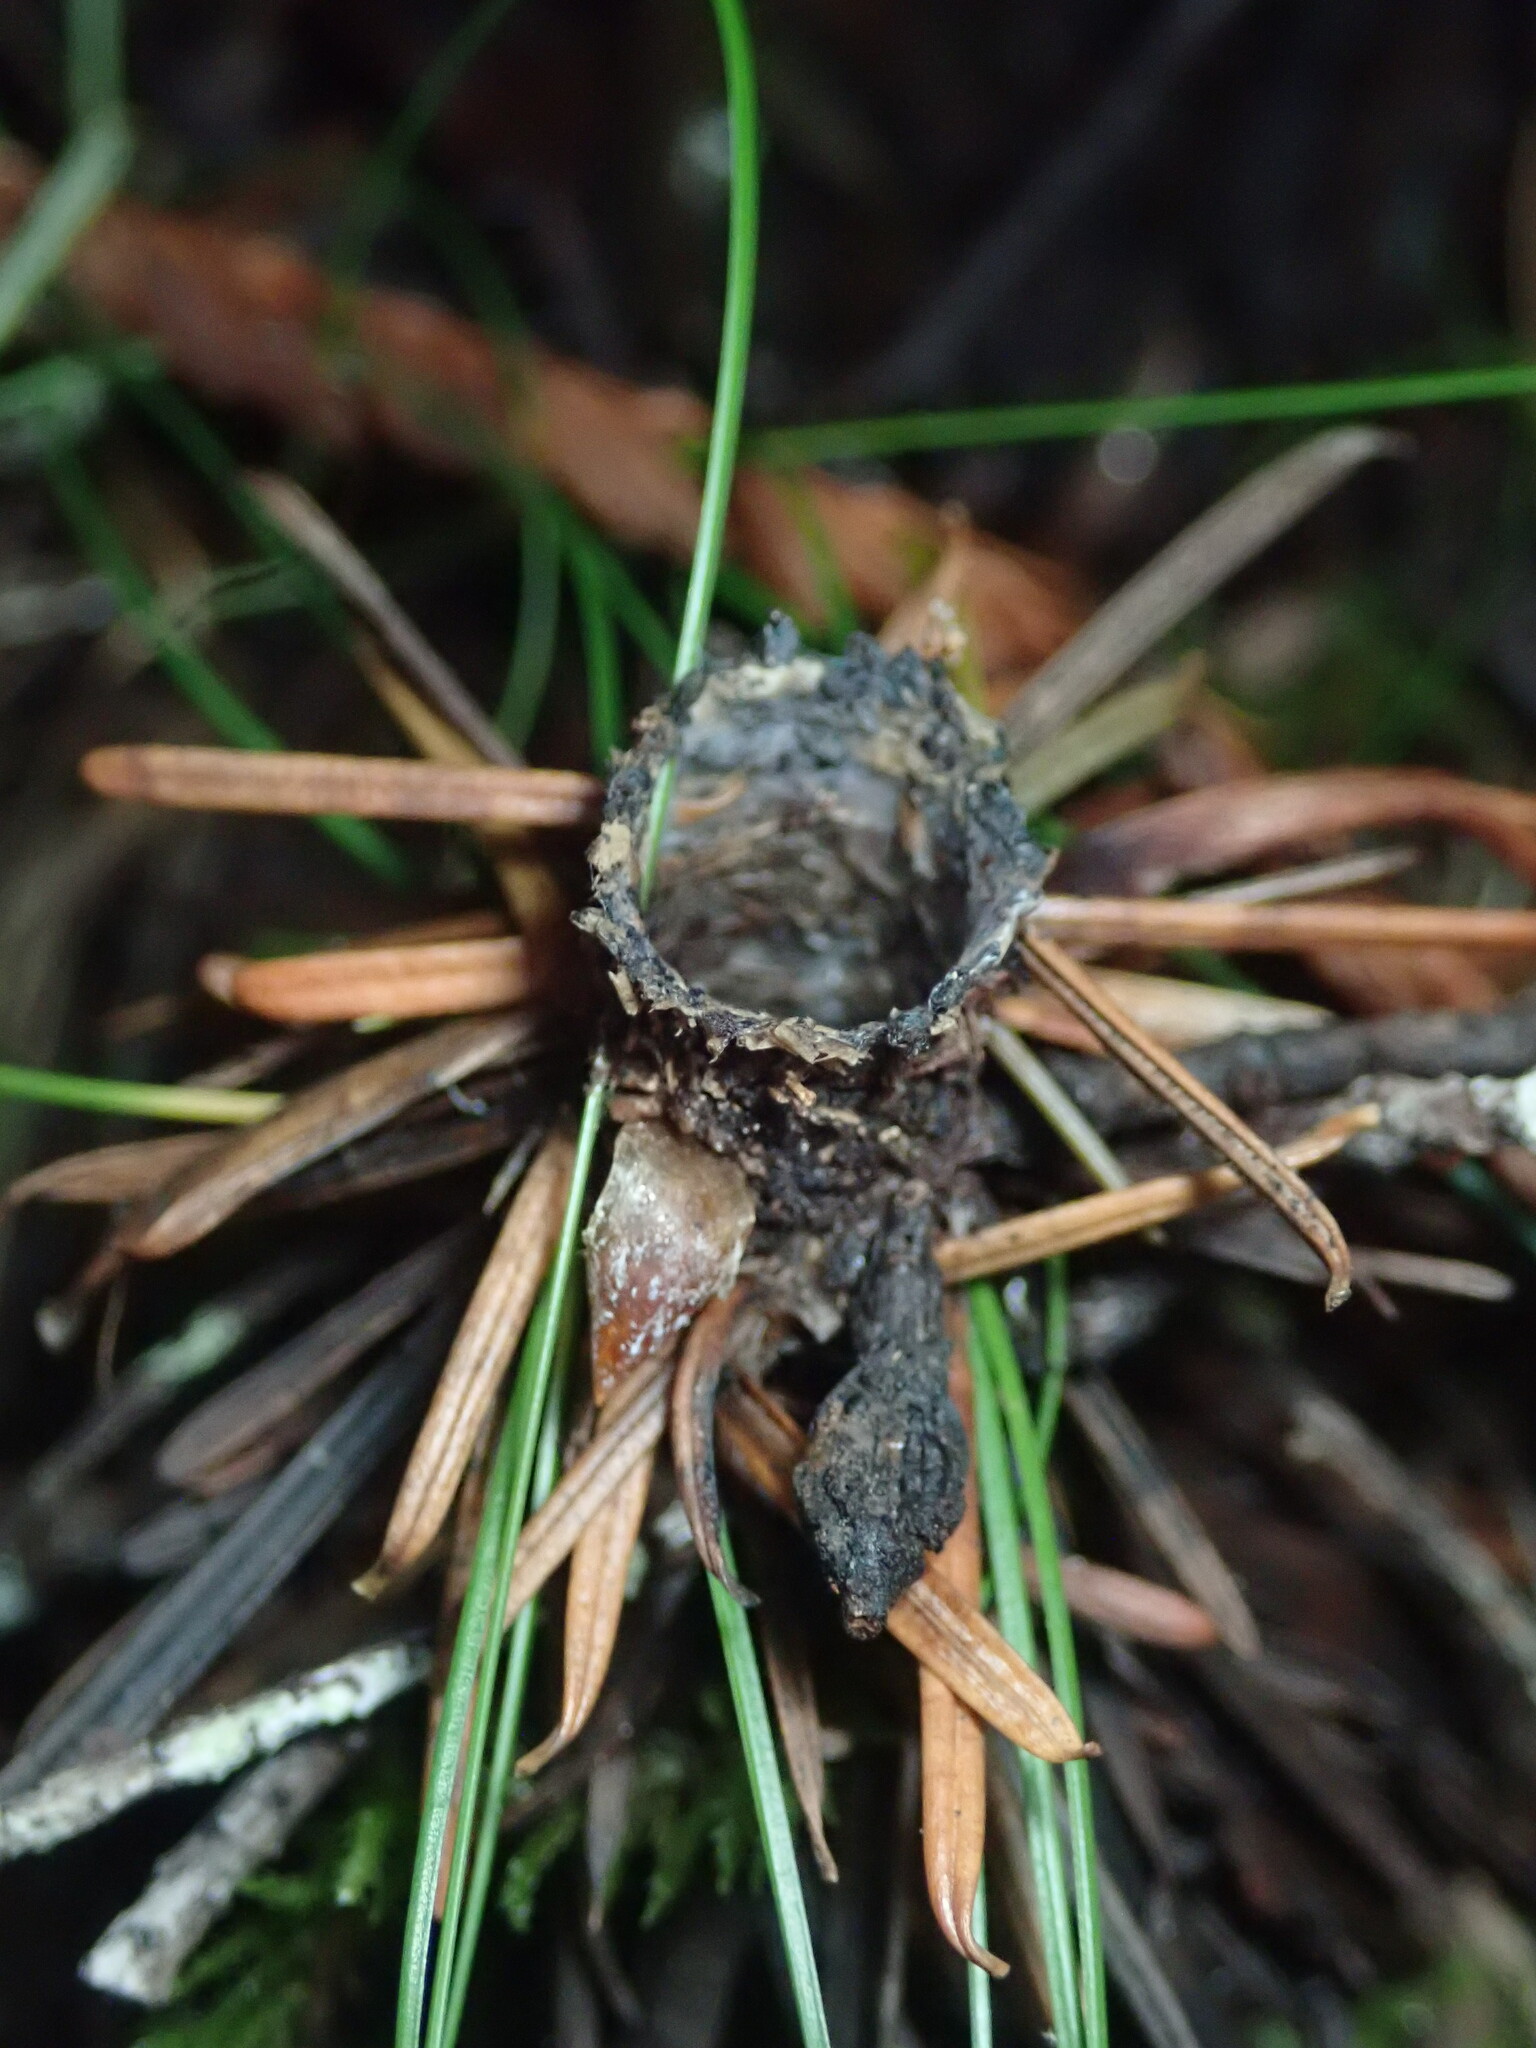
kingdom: Animalia
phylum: Arthropoda
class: Arachnida
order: Araneae
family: Antrodiaetidae
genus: Atypoides
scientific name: Atypoides riversi
